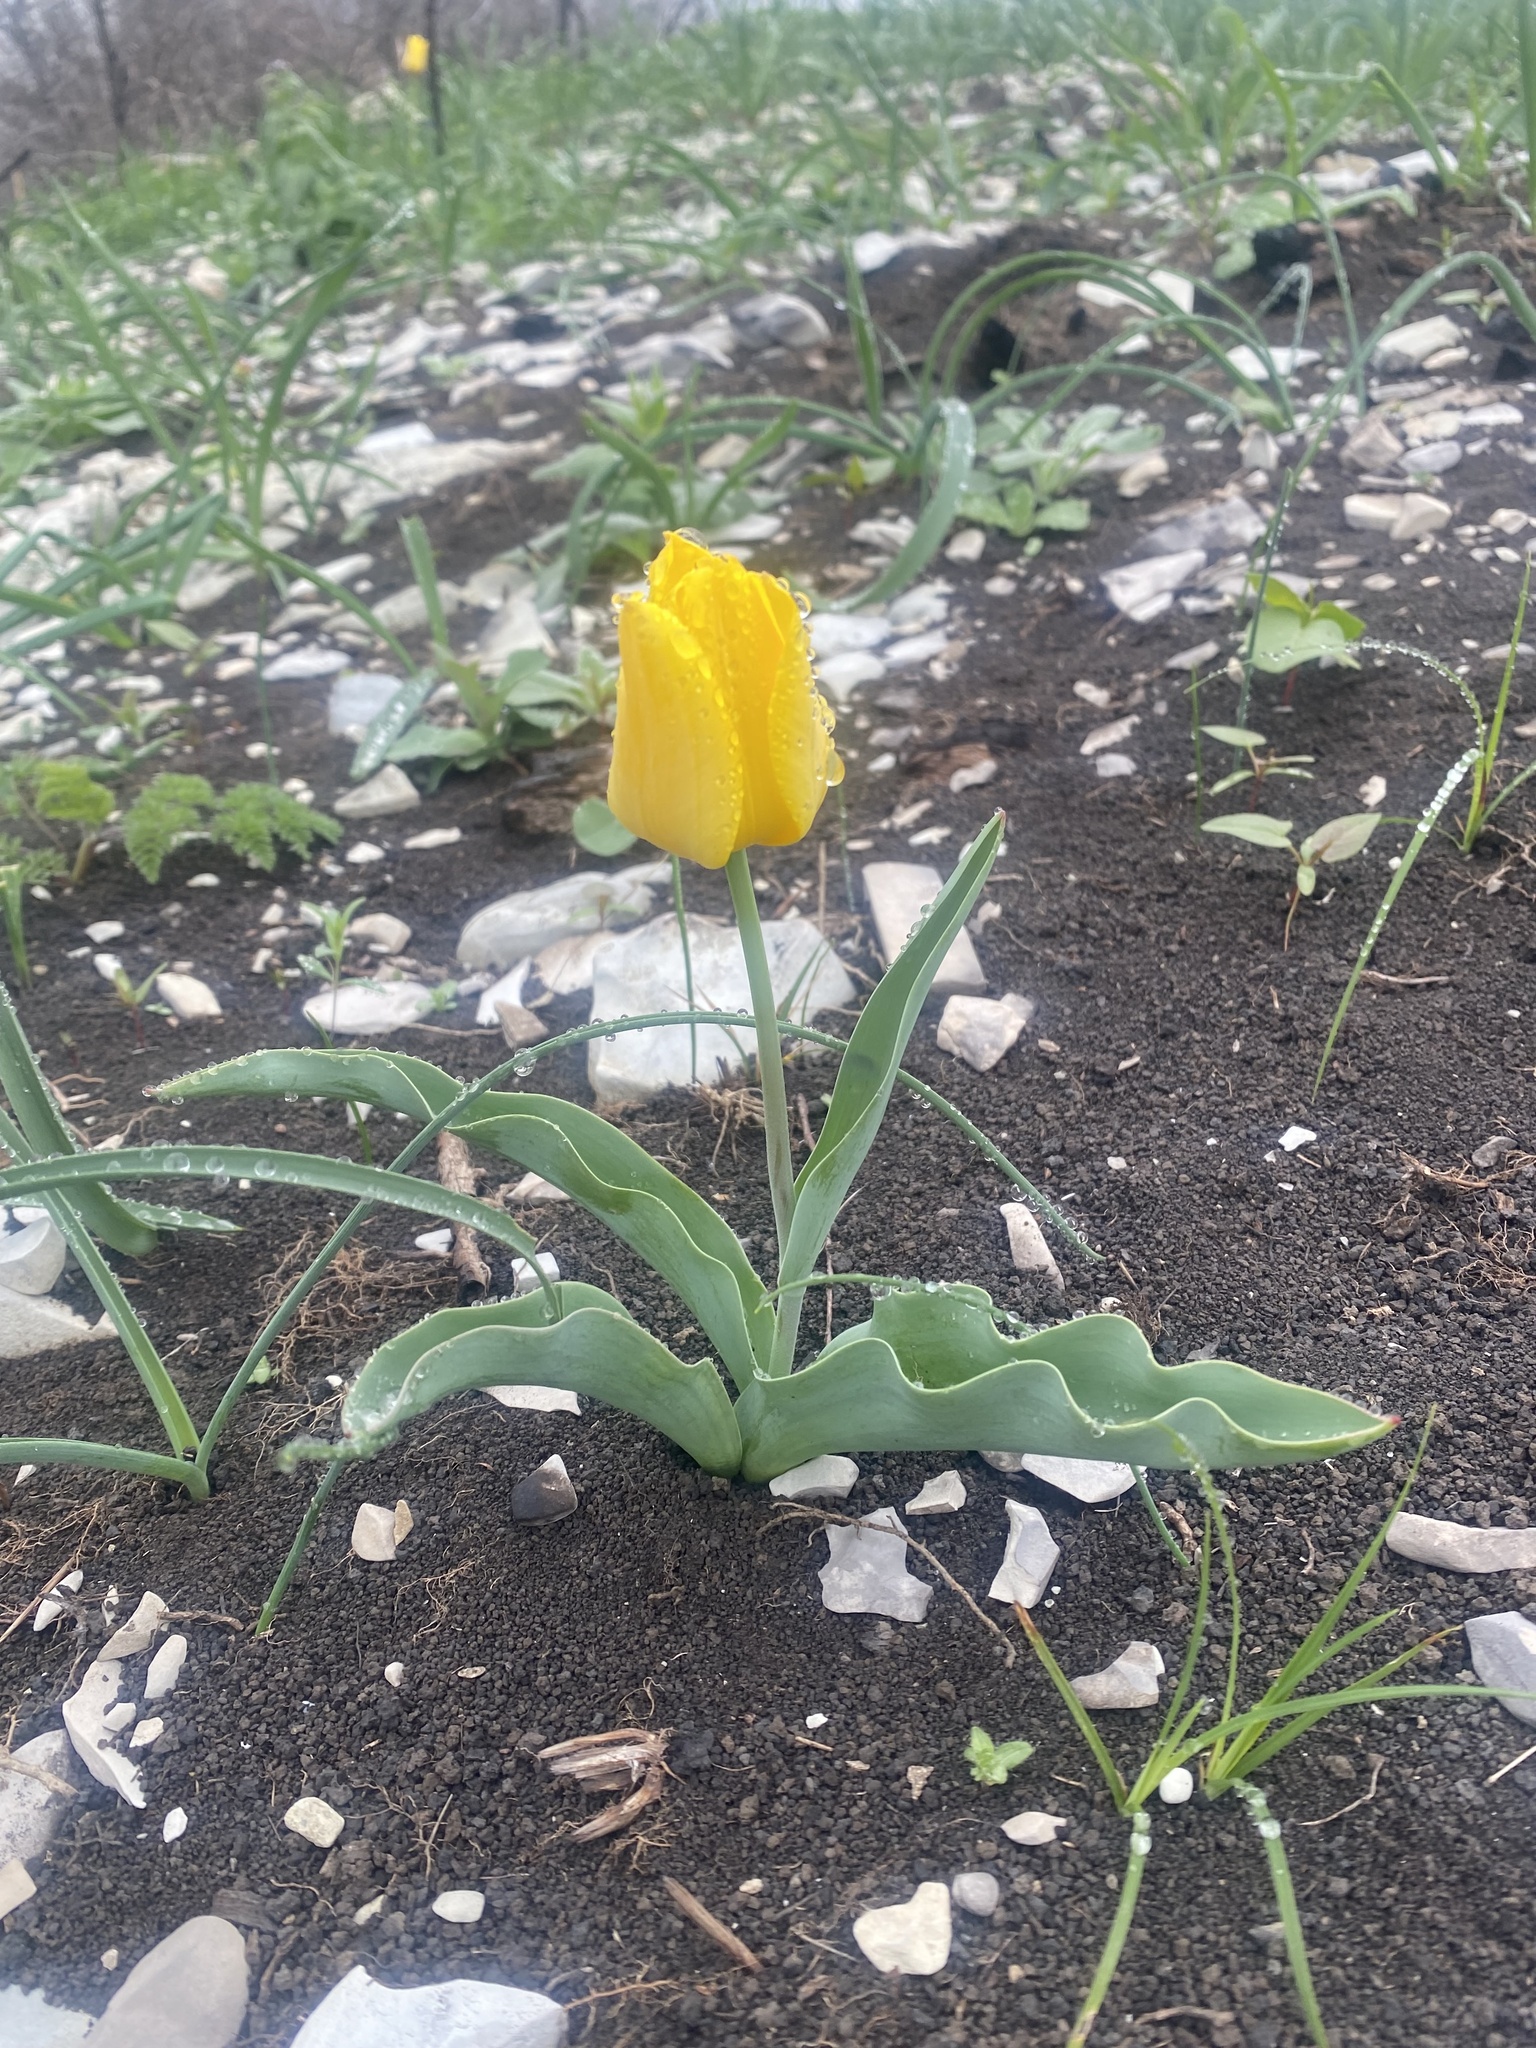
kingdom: Plantae
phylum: Tracheophyta
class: Liliopsida
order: Liliales
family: Liliaceae
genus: Tulipa
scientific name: Tulipa suaveolens
